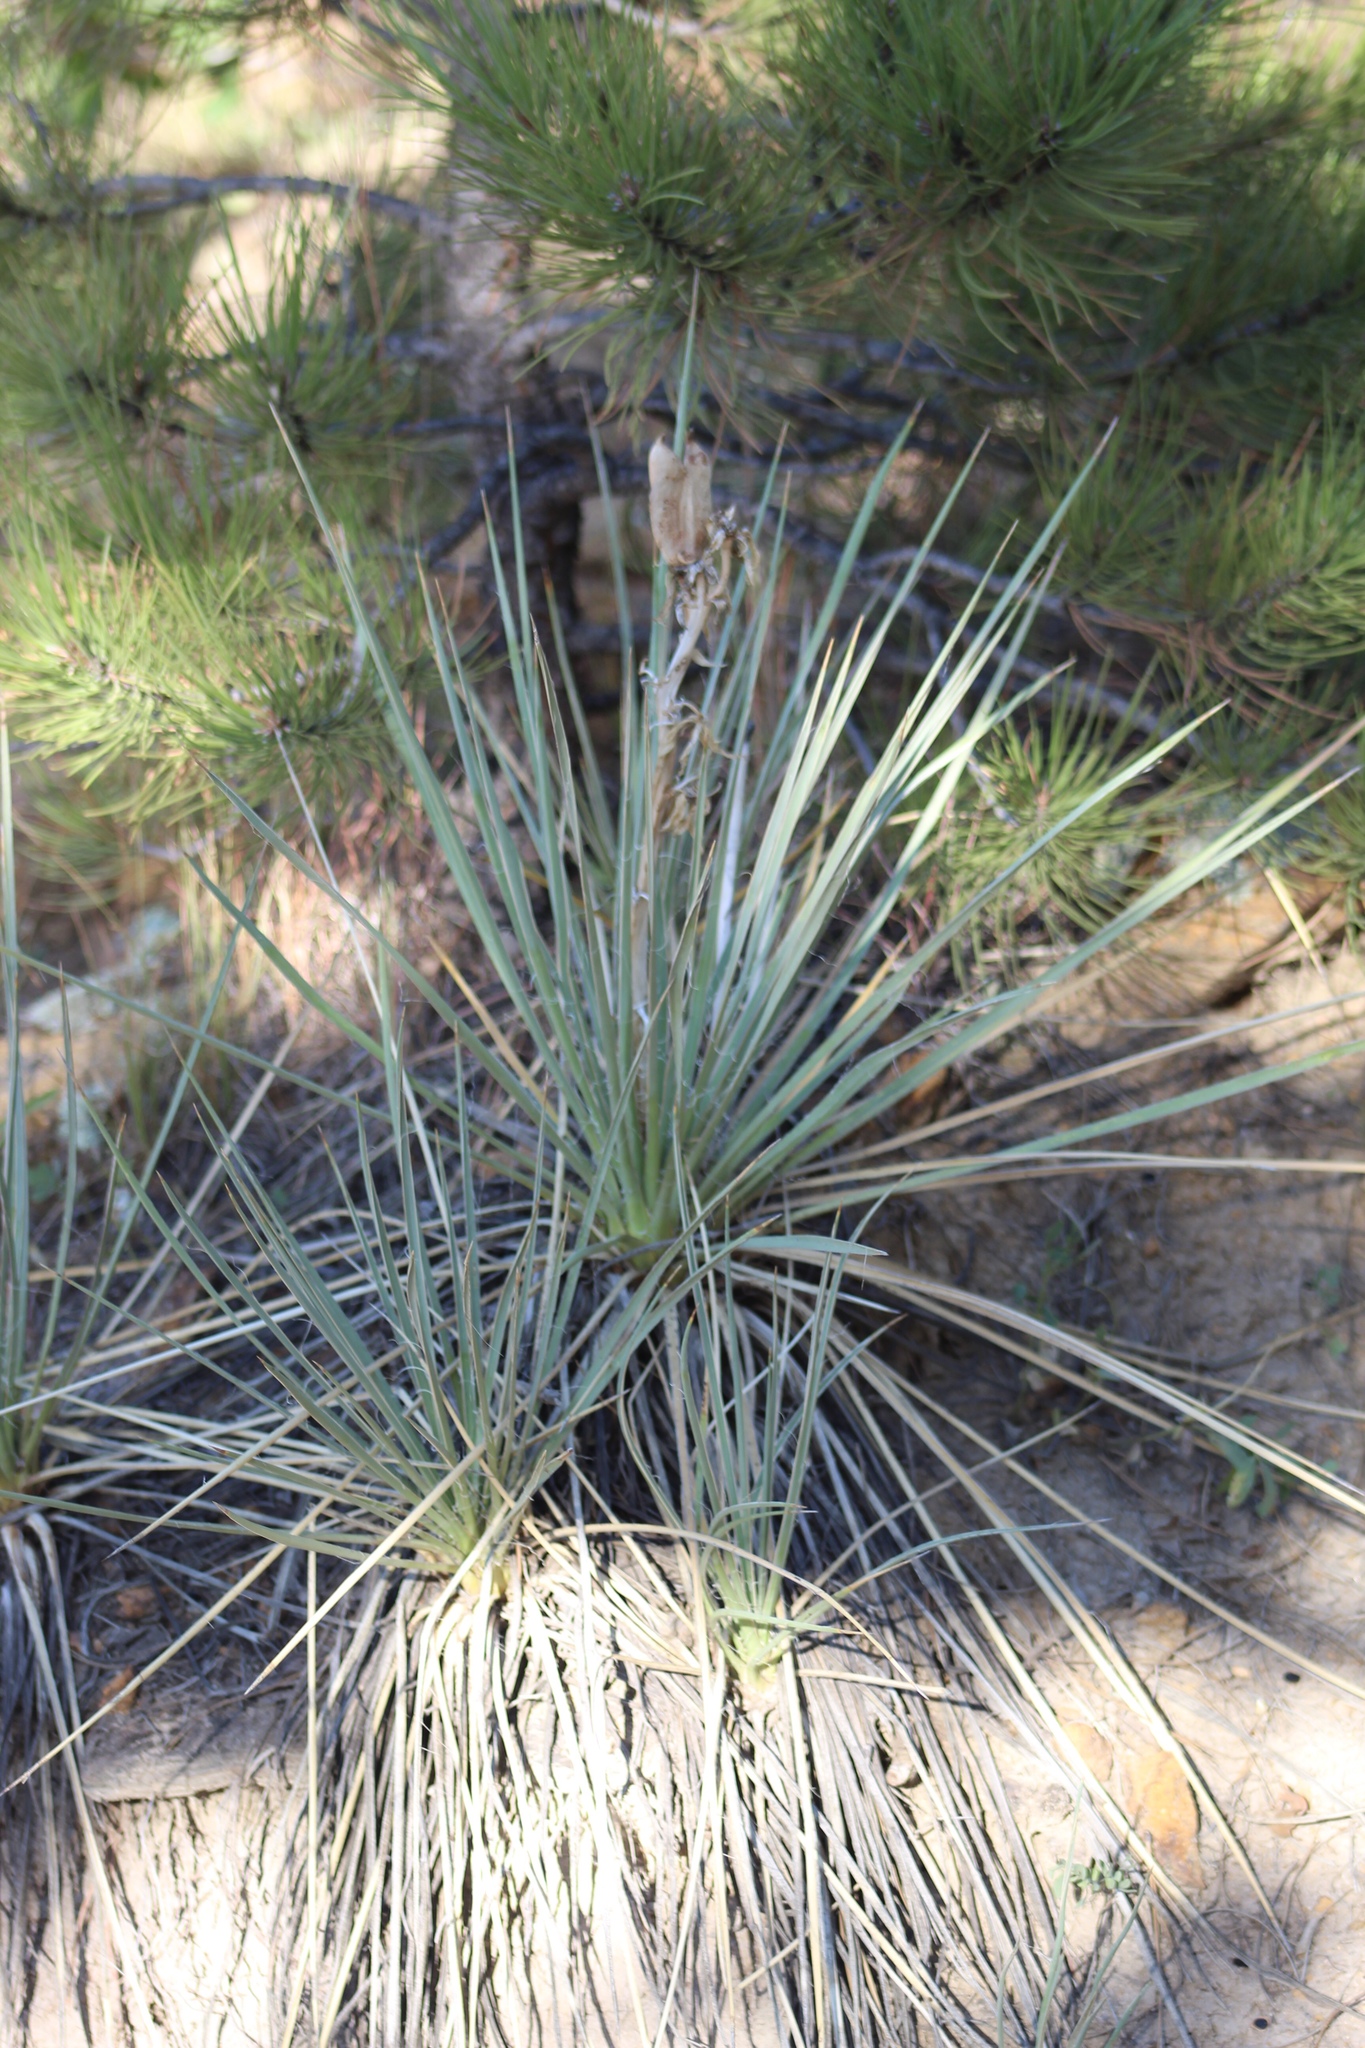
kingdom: Plantae
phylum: Tracheophyta
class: Liliopsida
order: Asparagales
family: Asparagaceae
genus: Yucca
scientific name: Yucca glauca
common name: Great plains yucca
